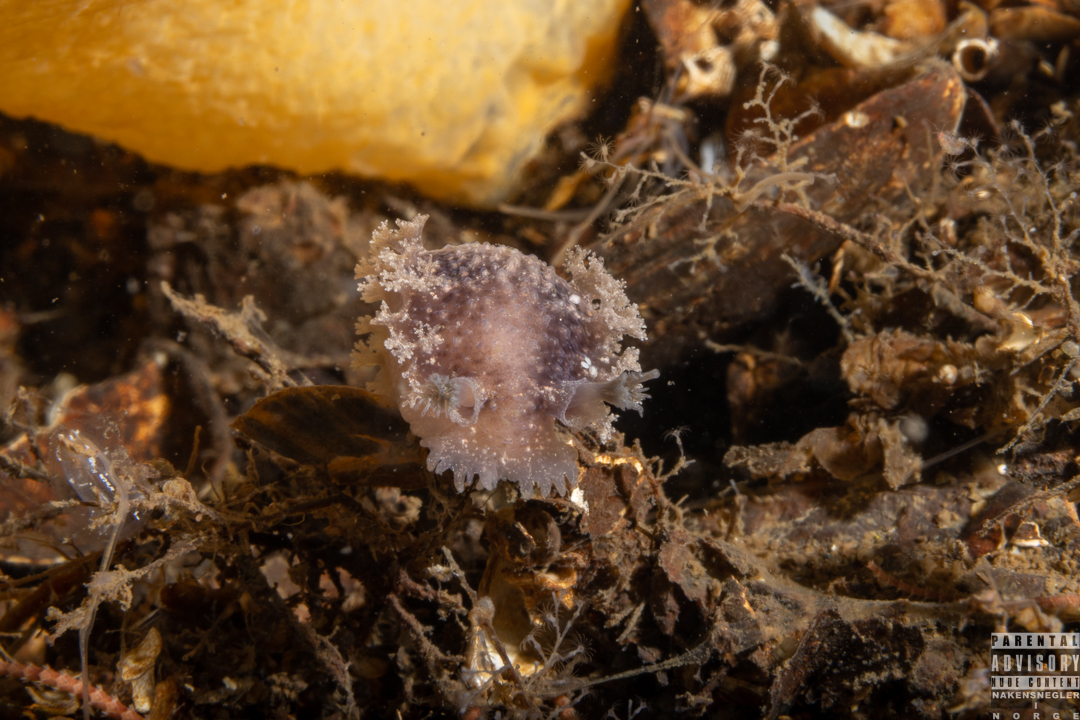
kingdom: Animalia
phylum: Mollusca
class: Gastropoda
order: Nudibranchia
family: Tritoniidae
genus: Tritonia
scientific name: Tritonia hombergii
